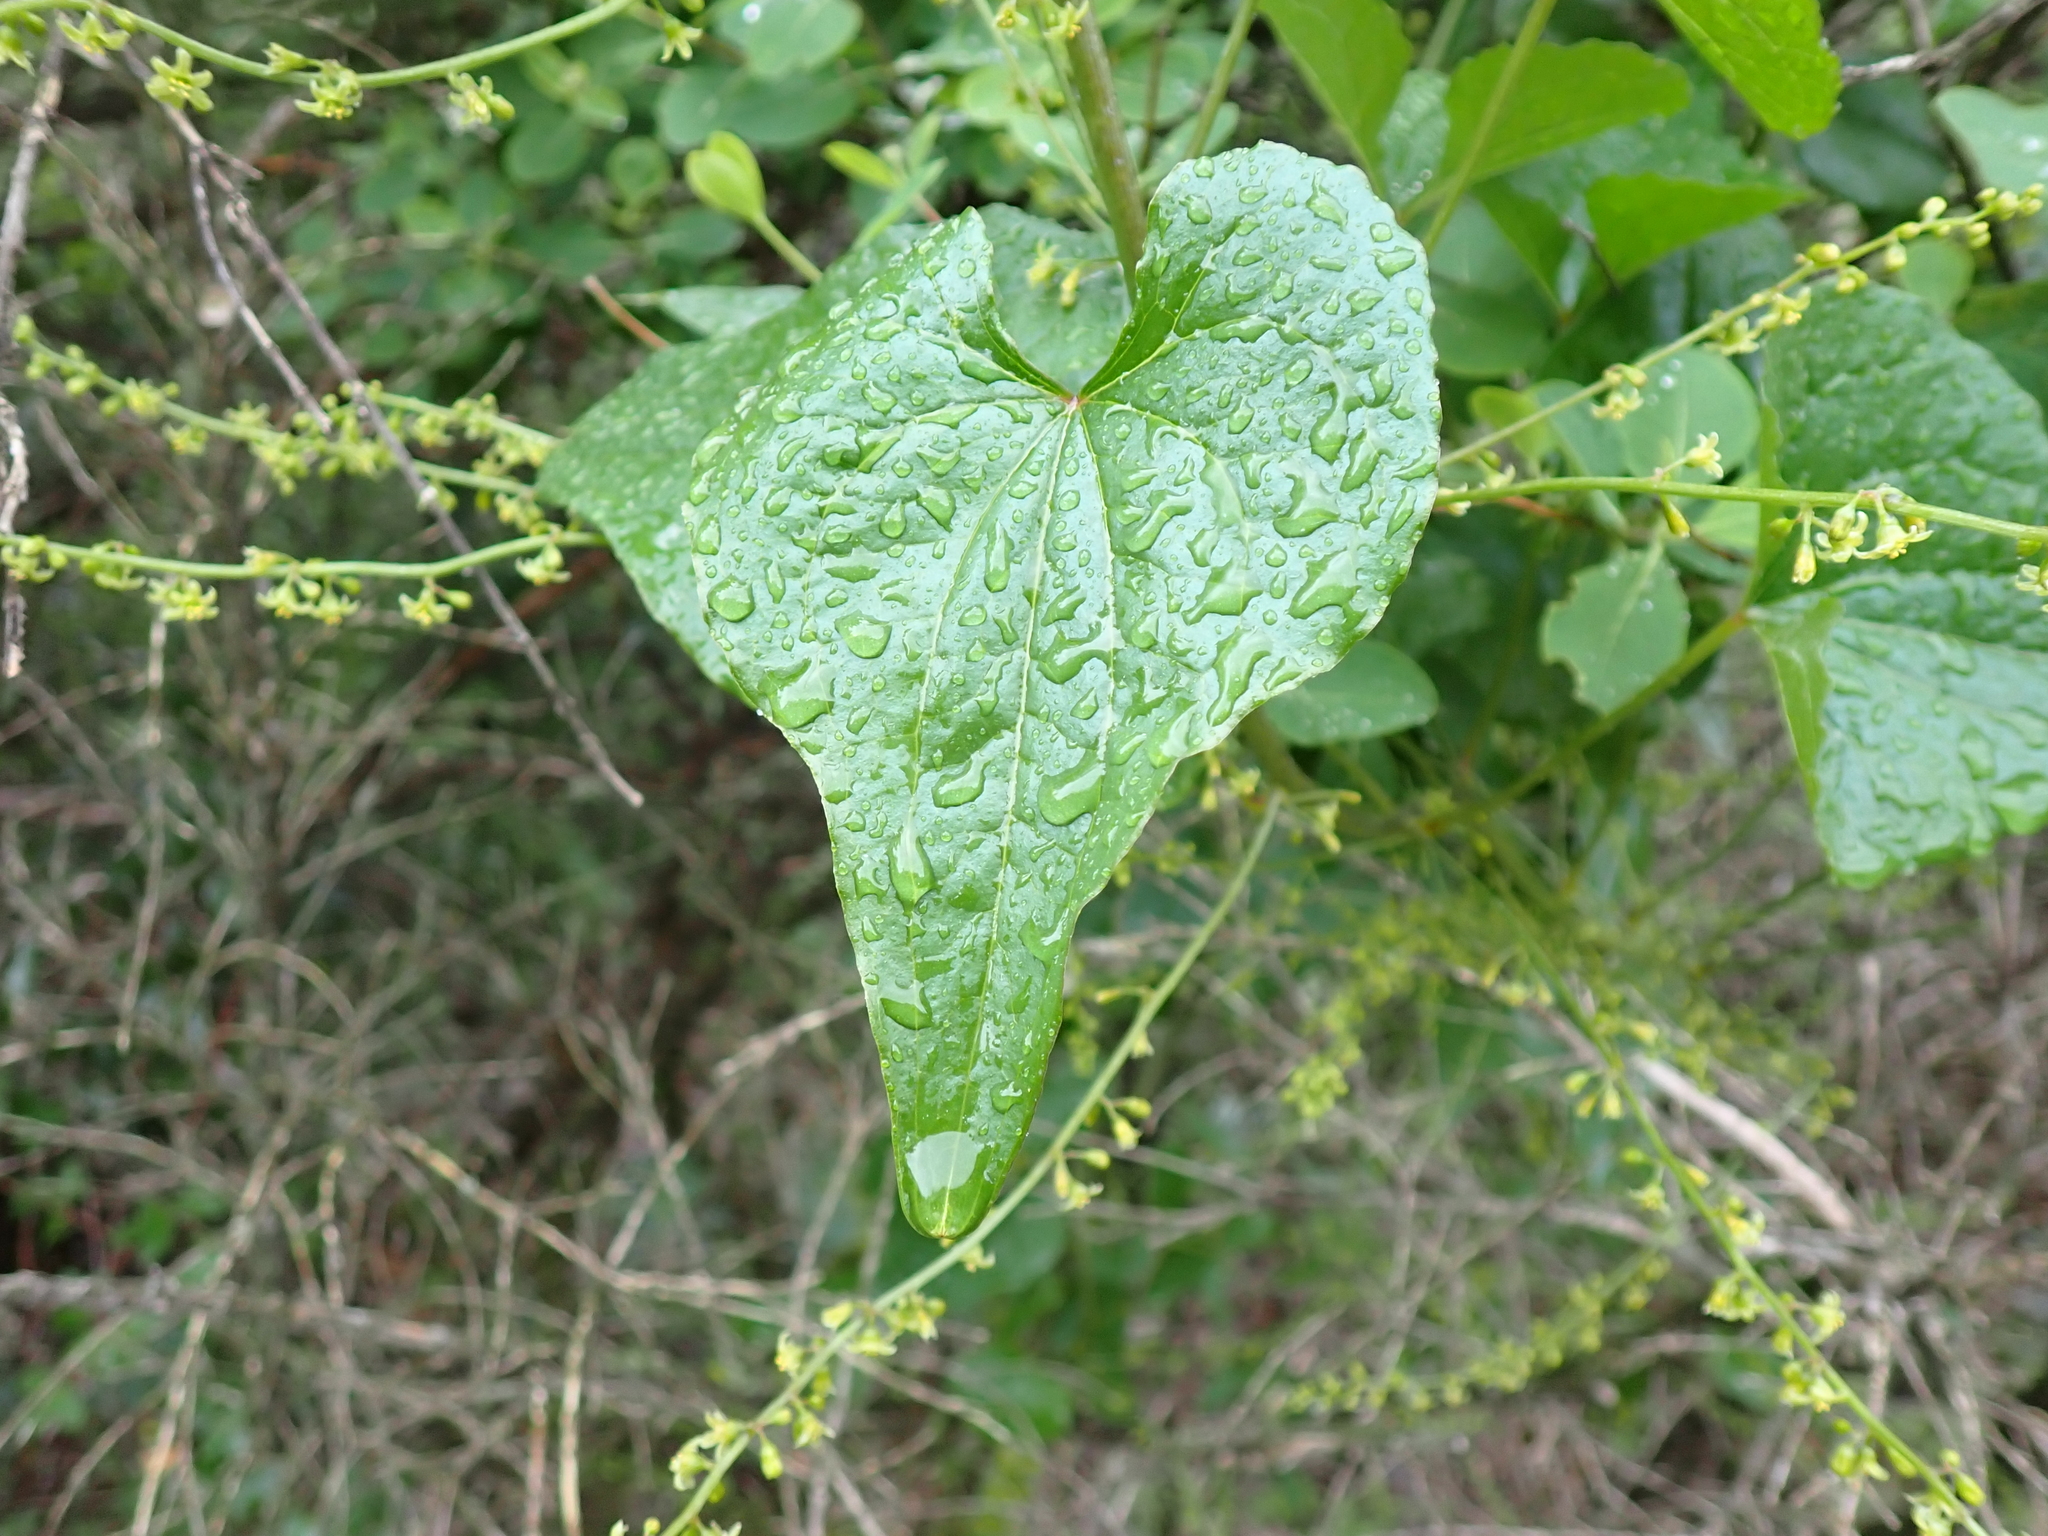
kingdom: Plantae
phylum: Tracheophyta
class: Liliopsida
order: Dioscoreales
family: Dioscoreaceae
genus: Dioscorea
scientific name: Dioscorea communis
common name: Black-bindweed
